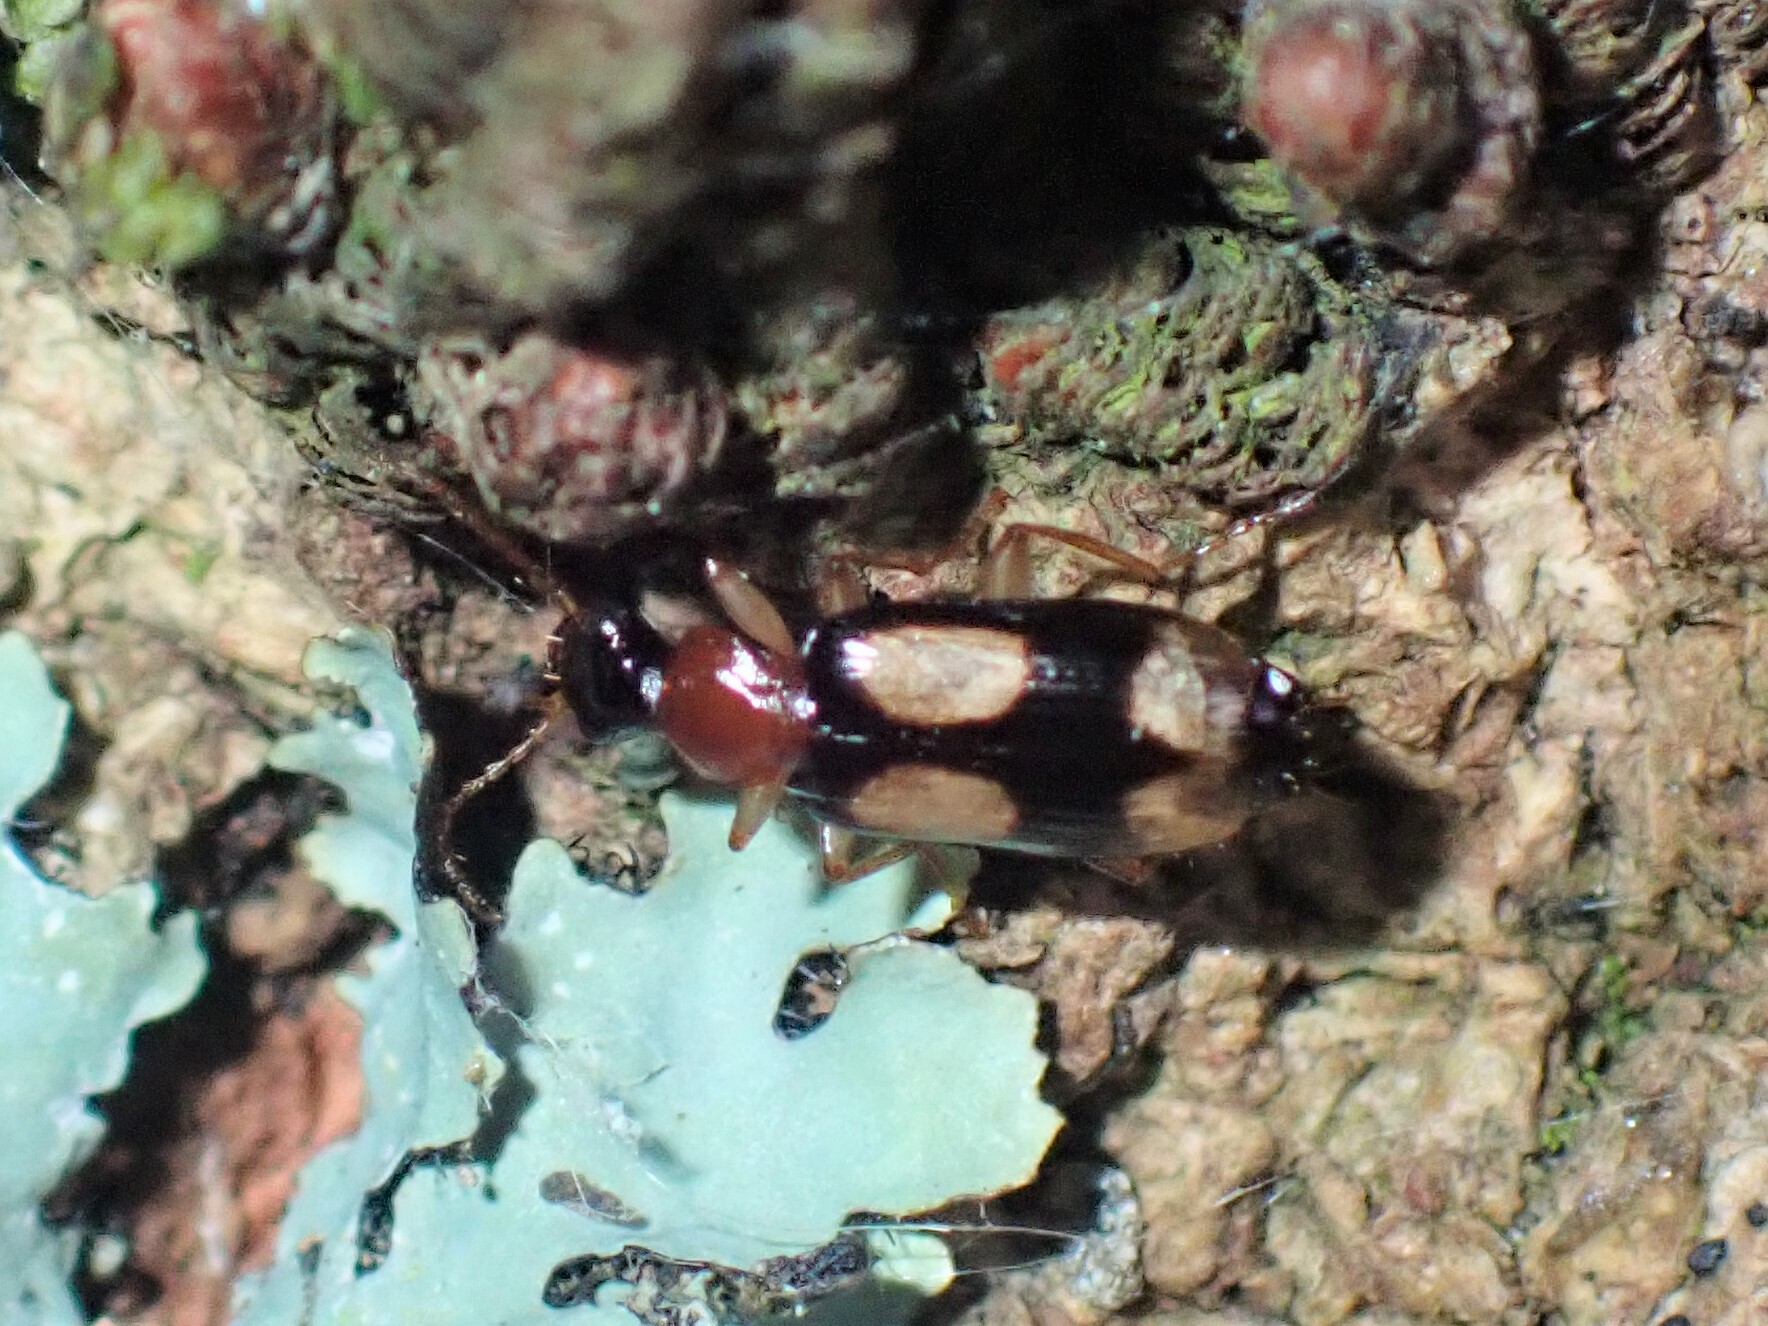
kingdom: Animalia
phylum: Arthropoda
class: Insecta
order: Coleoptera
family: Carabidae
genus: Dromius
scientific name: Dromius quadrimaculatus
